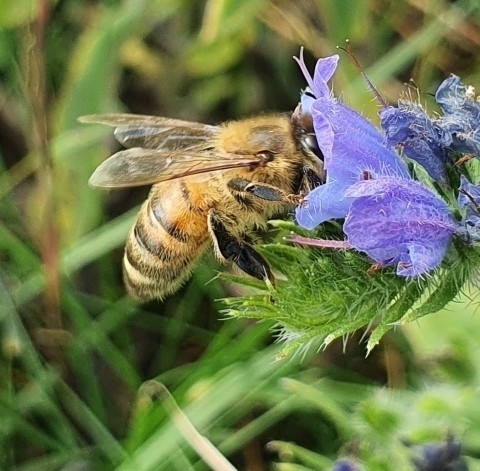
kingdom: Animalia
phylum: Arthropoda
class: Insecta
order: Hymenoptera
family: Apidae
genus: Apis
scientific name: Apis mellifera
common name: Honey bee
